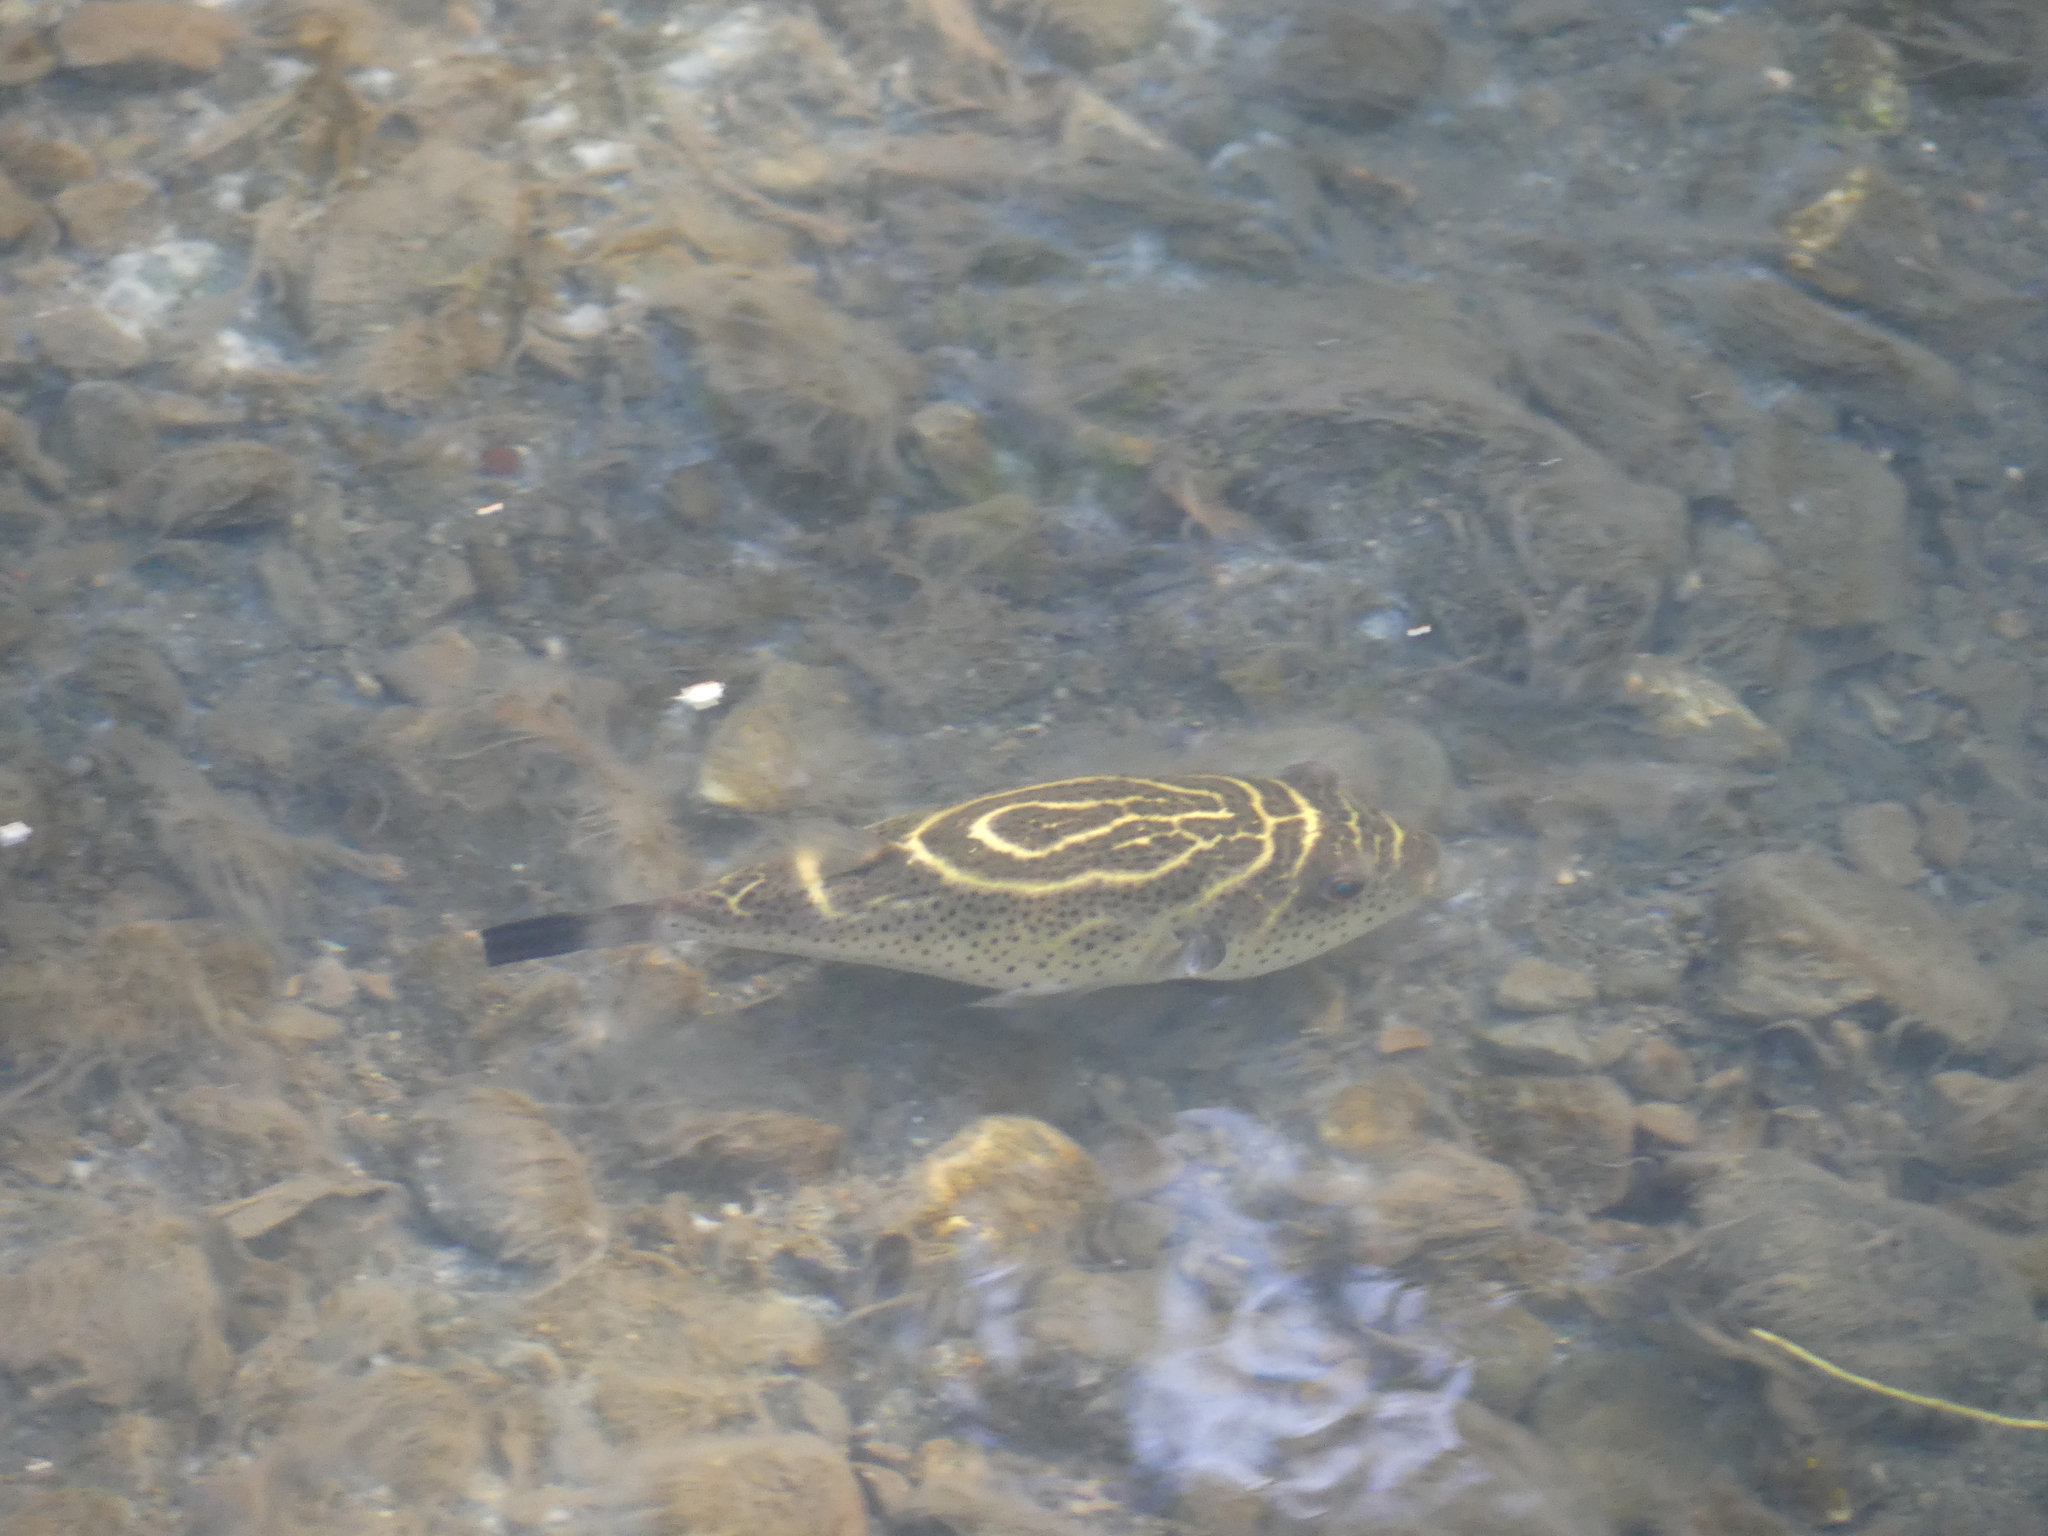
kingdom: Animalia
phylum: Chordata
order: Tetraodontiformes
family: Tetraodontidae
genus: Sphoeroides
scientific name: Sphoeroides annulatus
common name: Bullseye puffer
